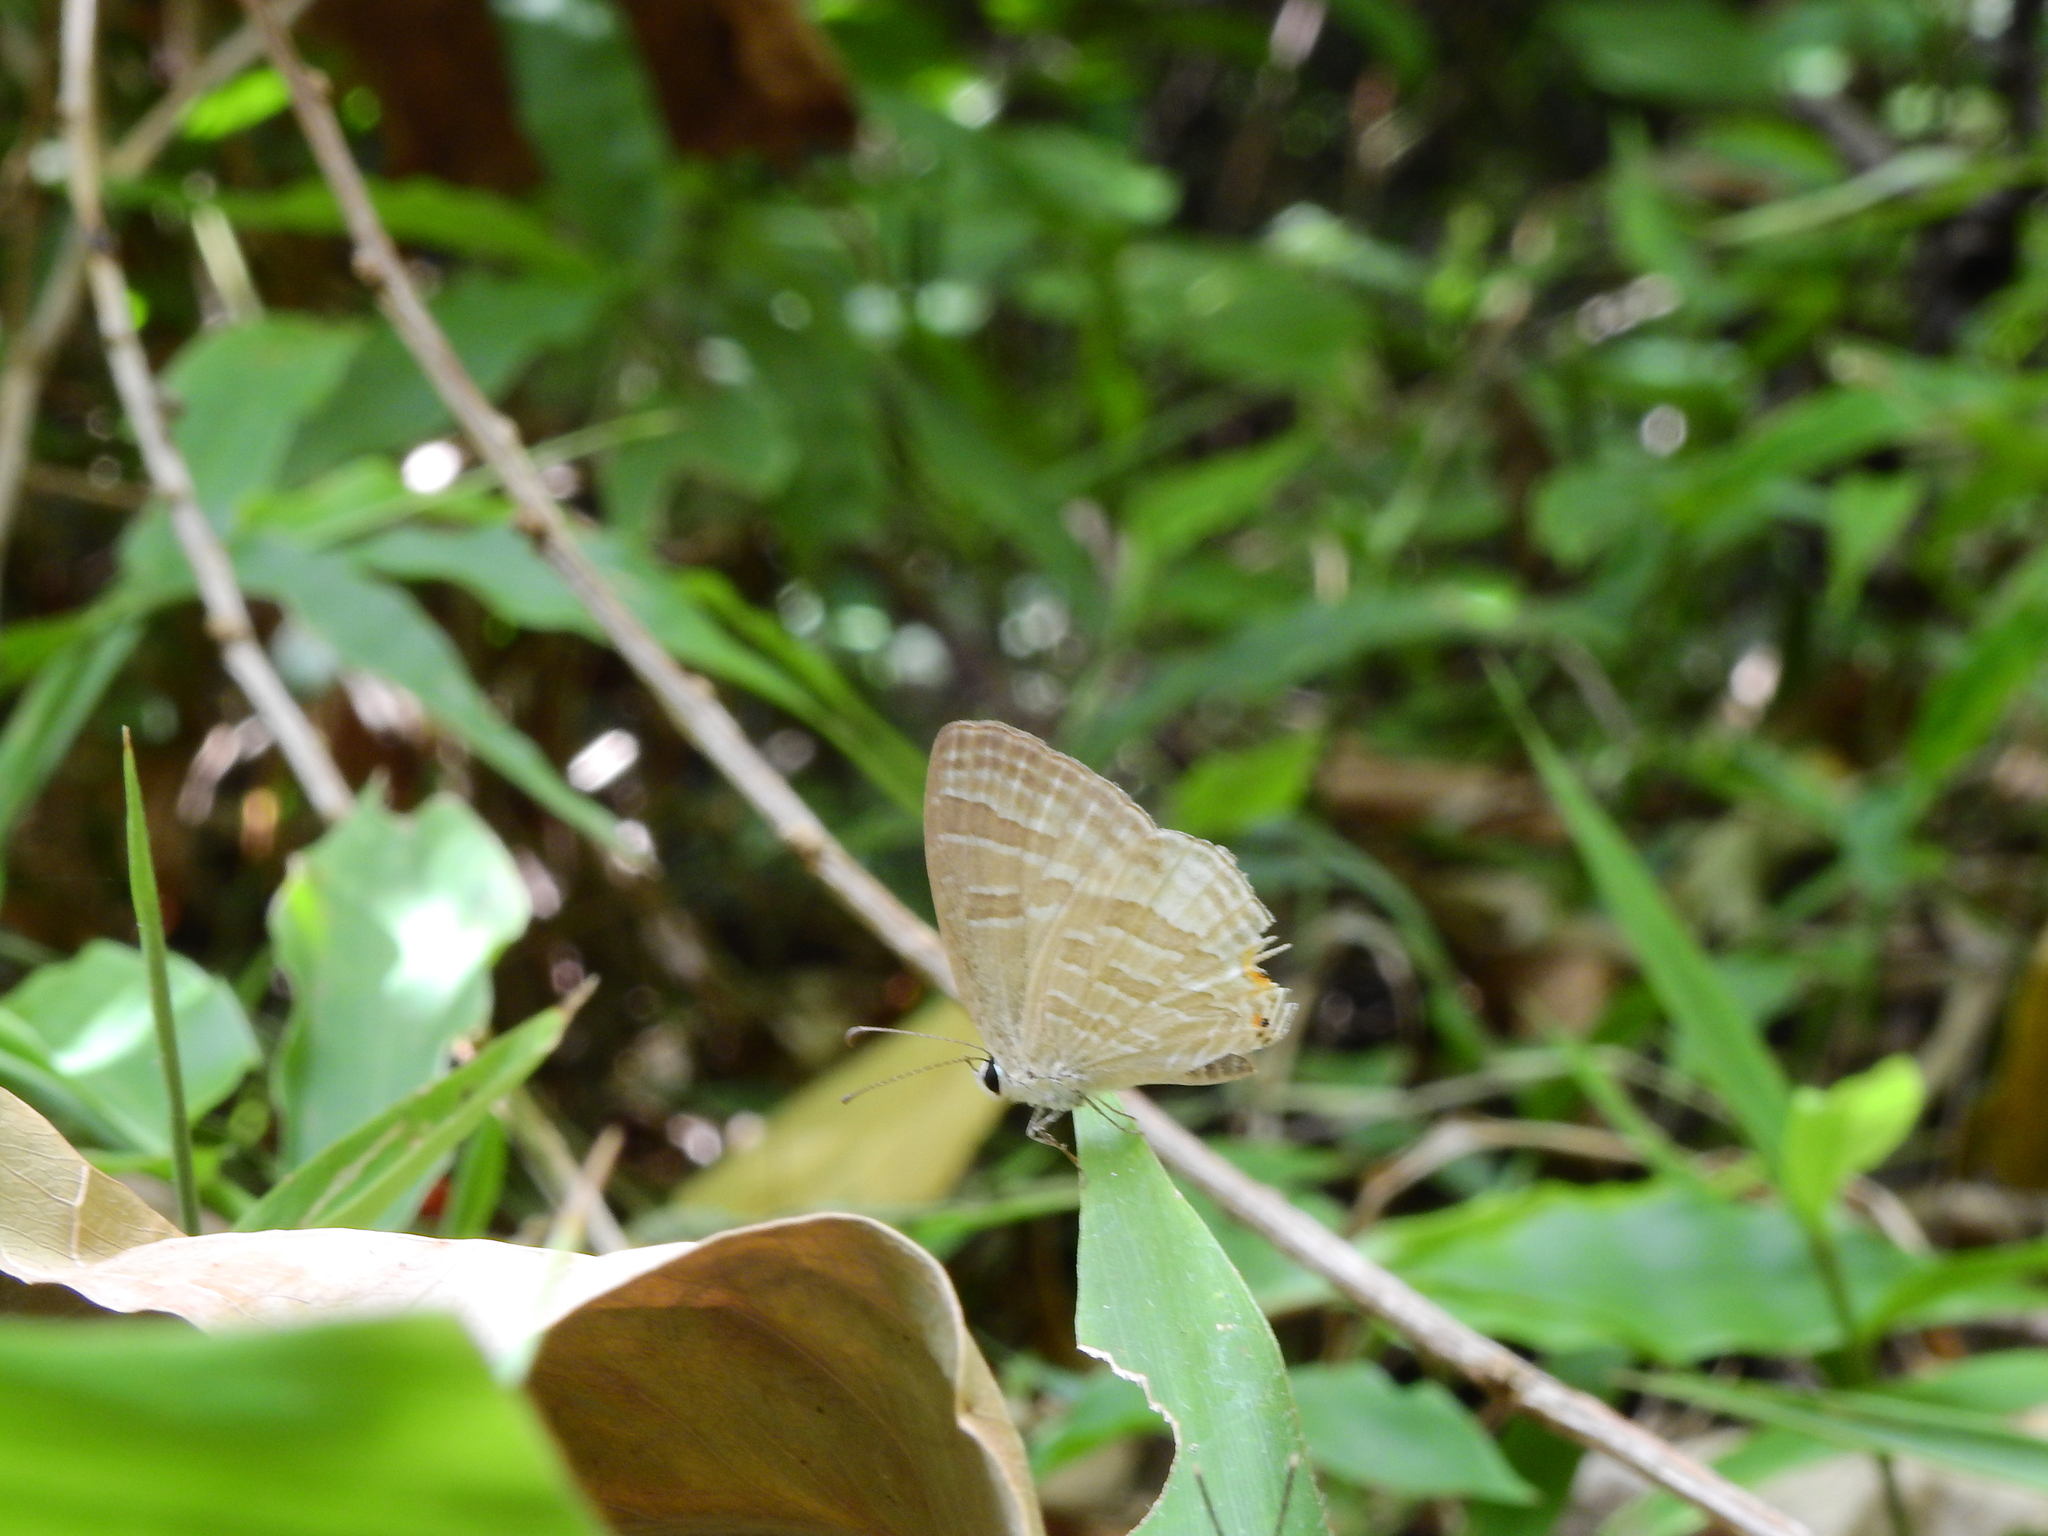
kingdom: Animalia
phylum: Arthropoda
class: Insecta
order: Lepidoptera
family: Lycaenidae
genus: Jamides
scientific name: Jamides celeno
